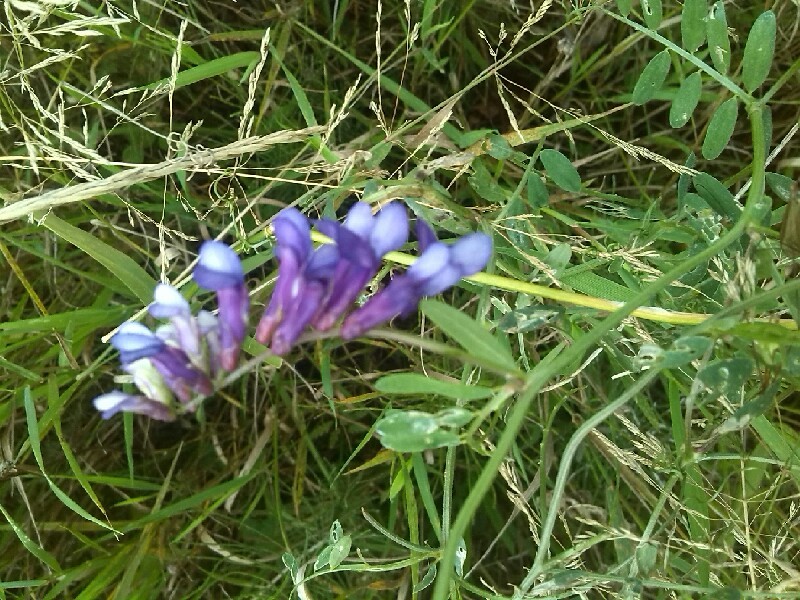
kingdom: Plantae
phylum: Tracheophyta
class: Magnoliopsida
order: Fabales
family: Fabaceae
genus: Vicia
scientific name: Vicia villosa
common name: Fodder vetch
